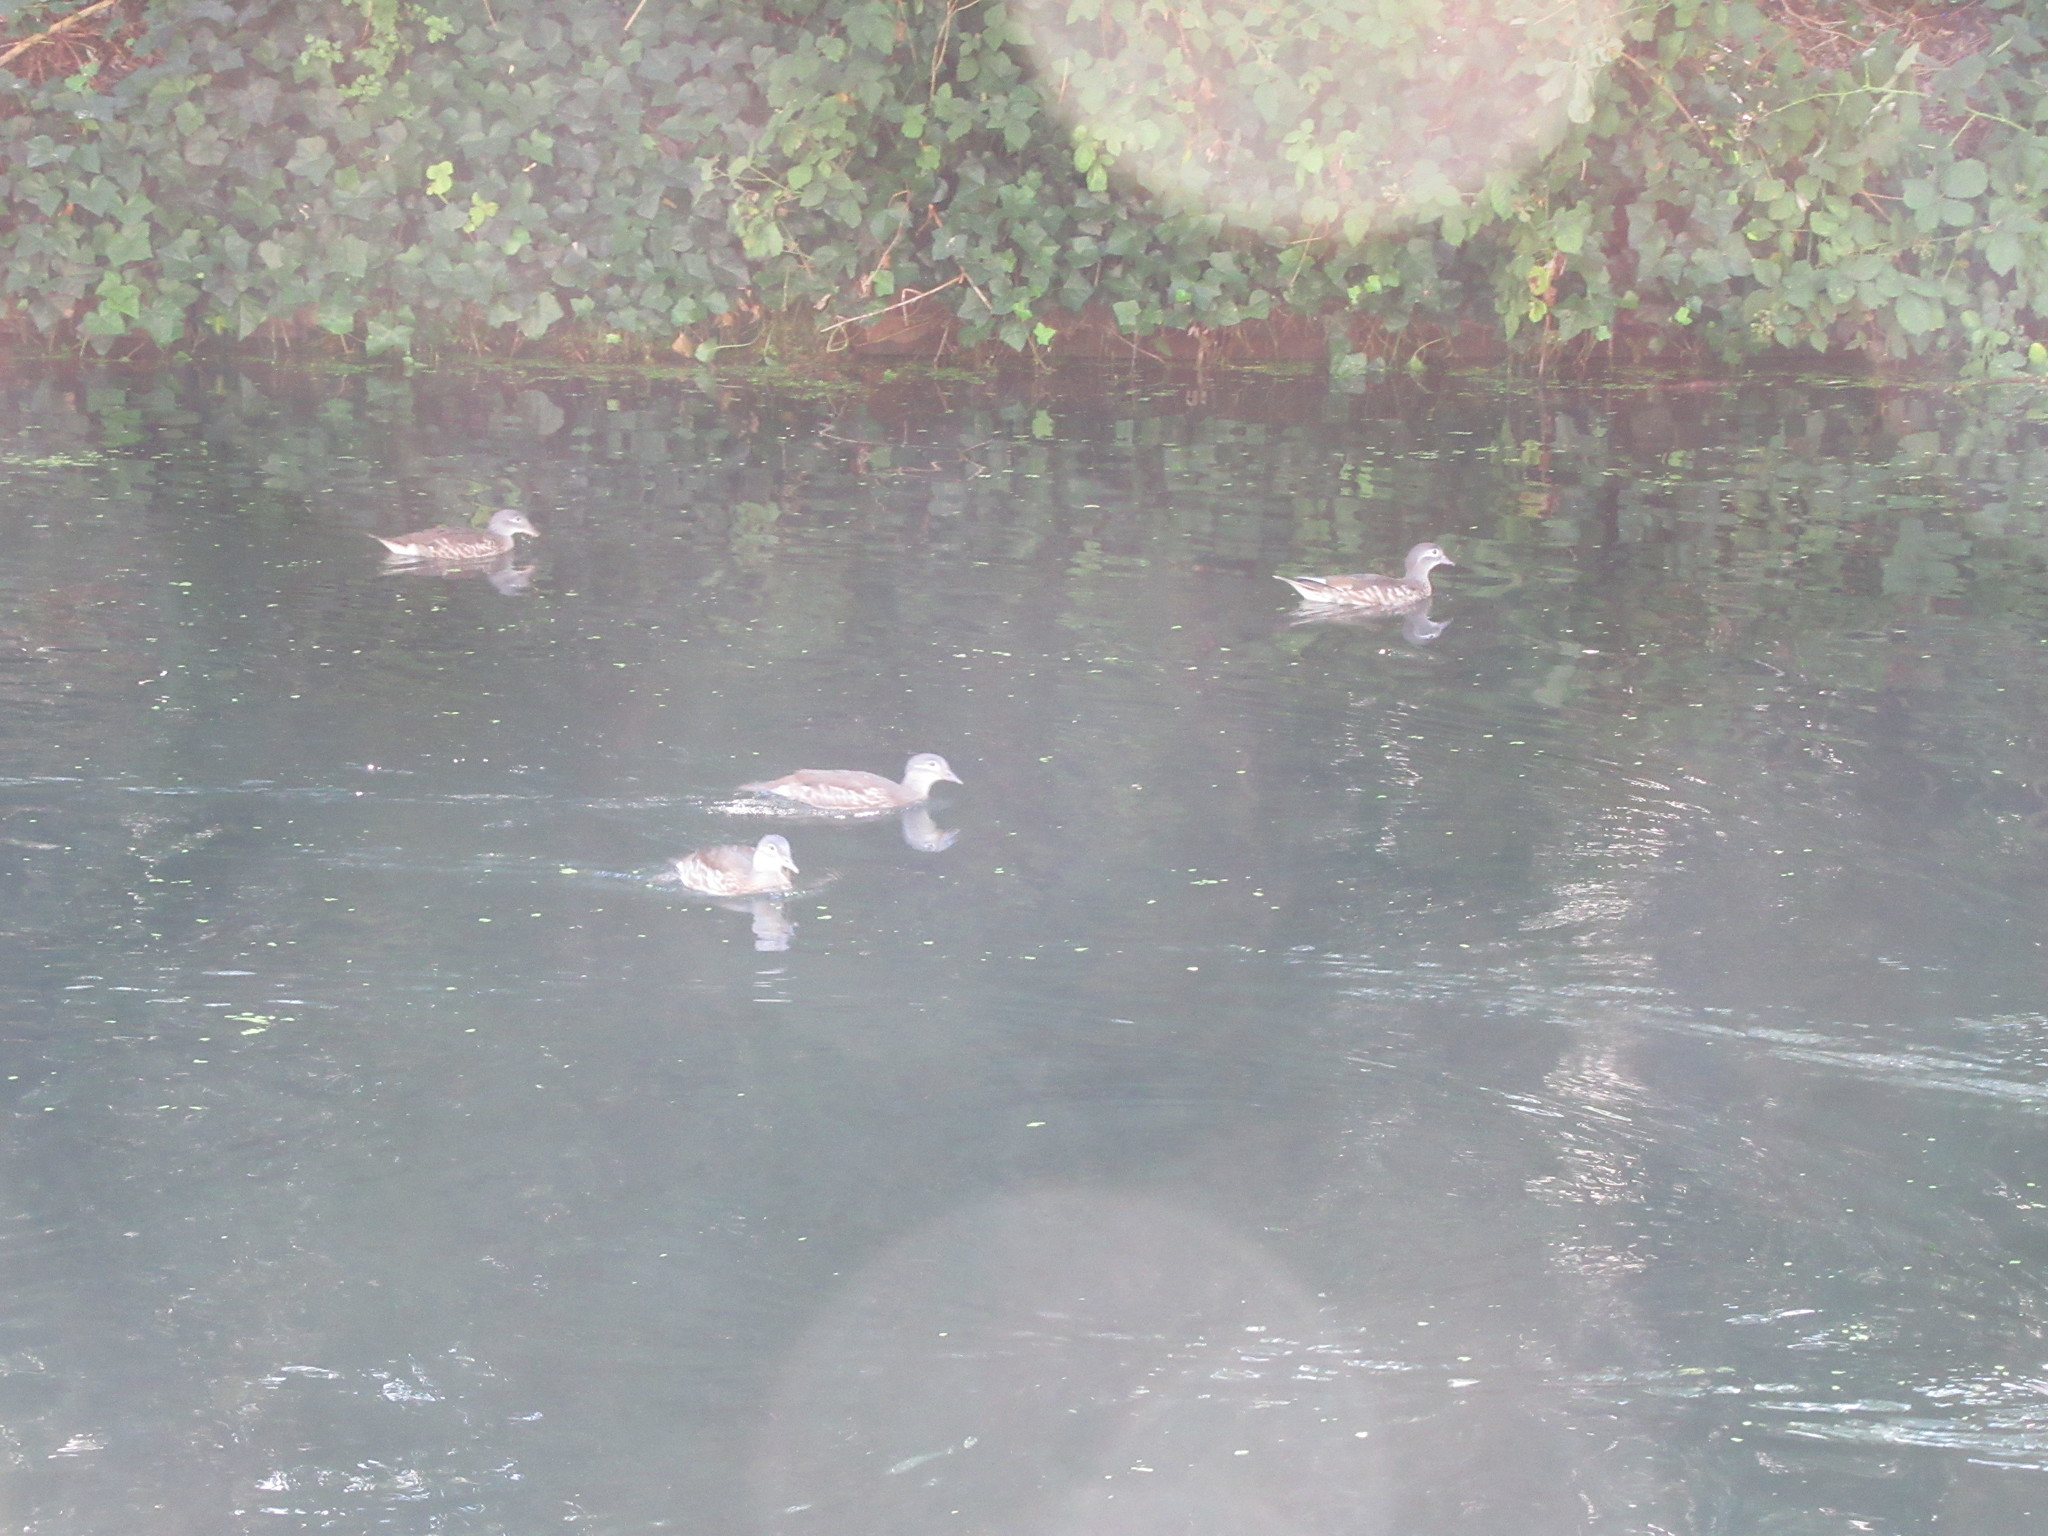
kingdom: Animalia
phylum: Chordata
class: Aves
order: Anseriformes
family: Anatidae
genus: Aix
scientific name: Aix galericulata
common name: Mandarin duck
